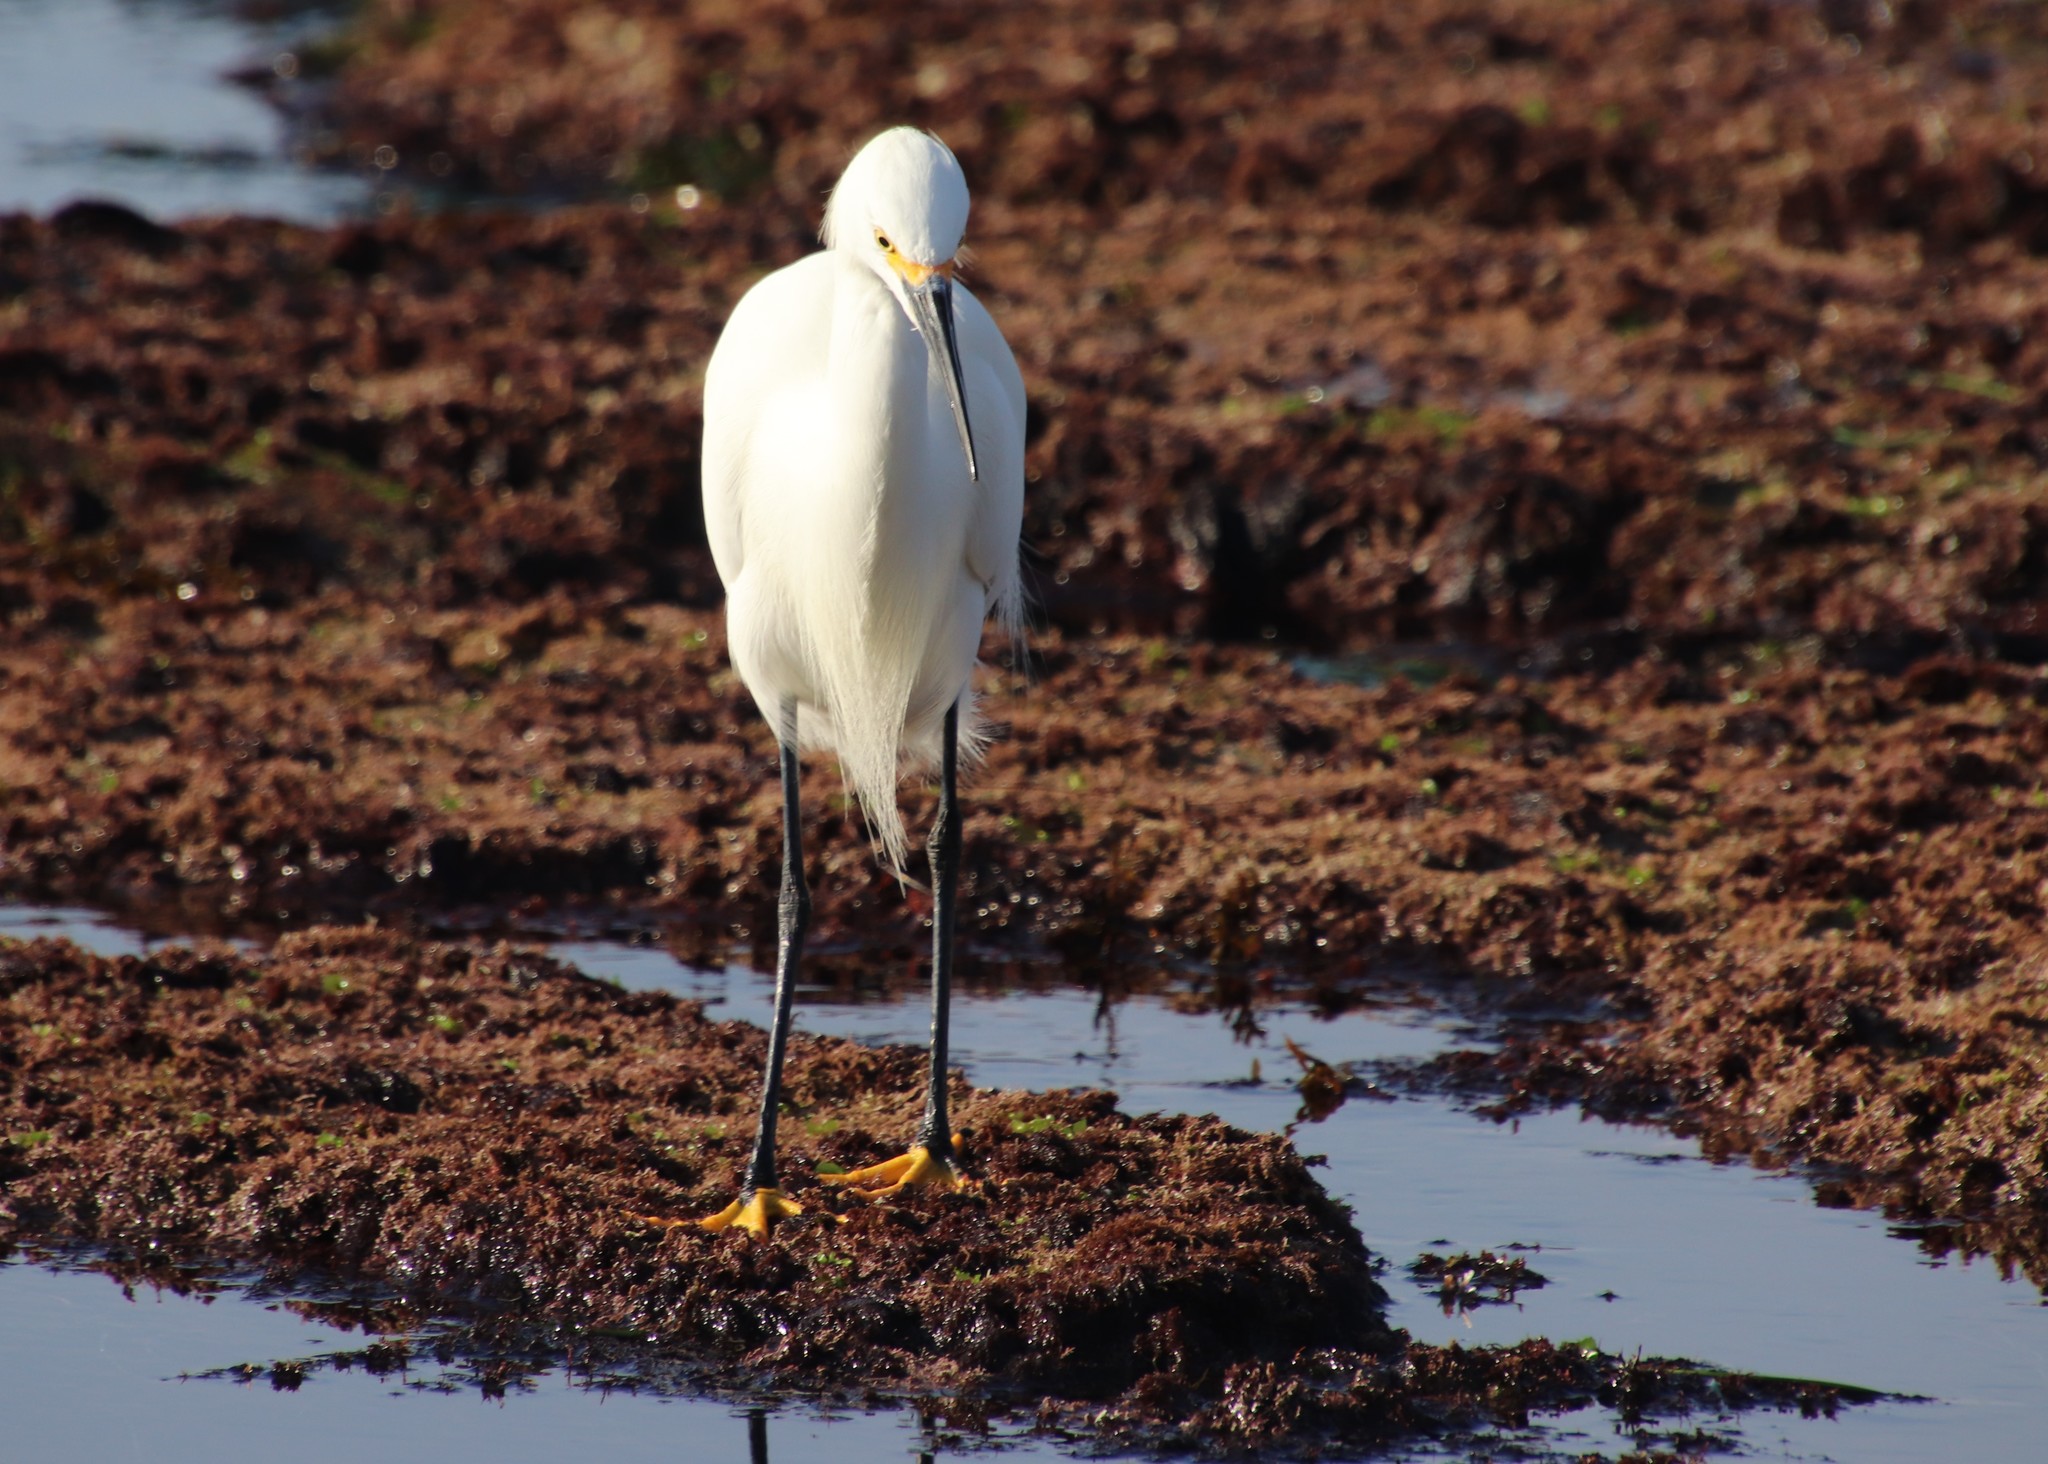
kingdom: Animalia
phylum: Chordata
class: Aves
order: Pelecaniformes
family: Ardeidae
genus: Egretta
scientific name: Egretta thula
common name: Snowy egret
